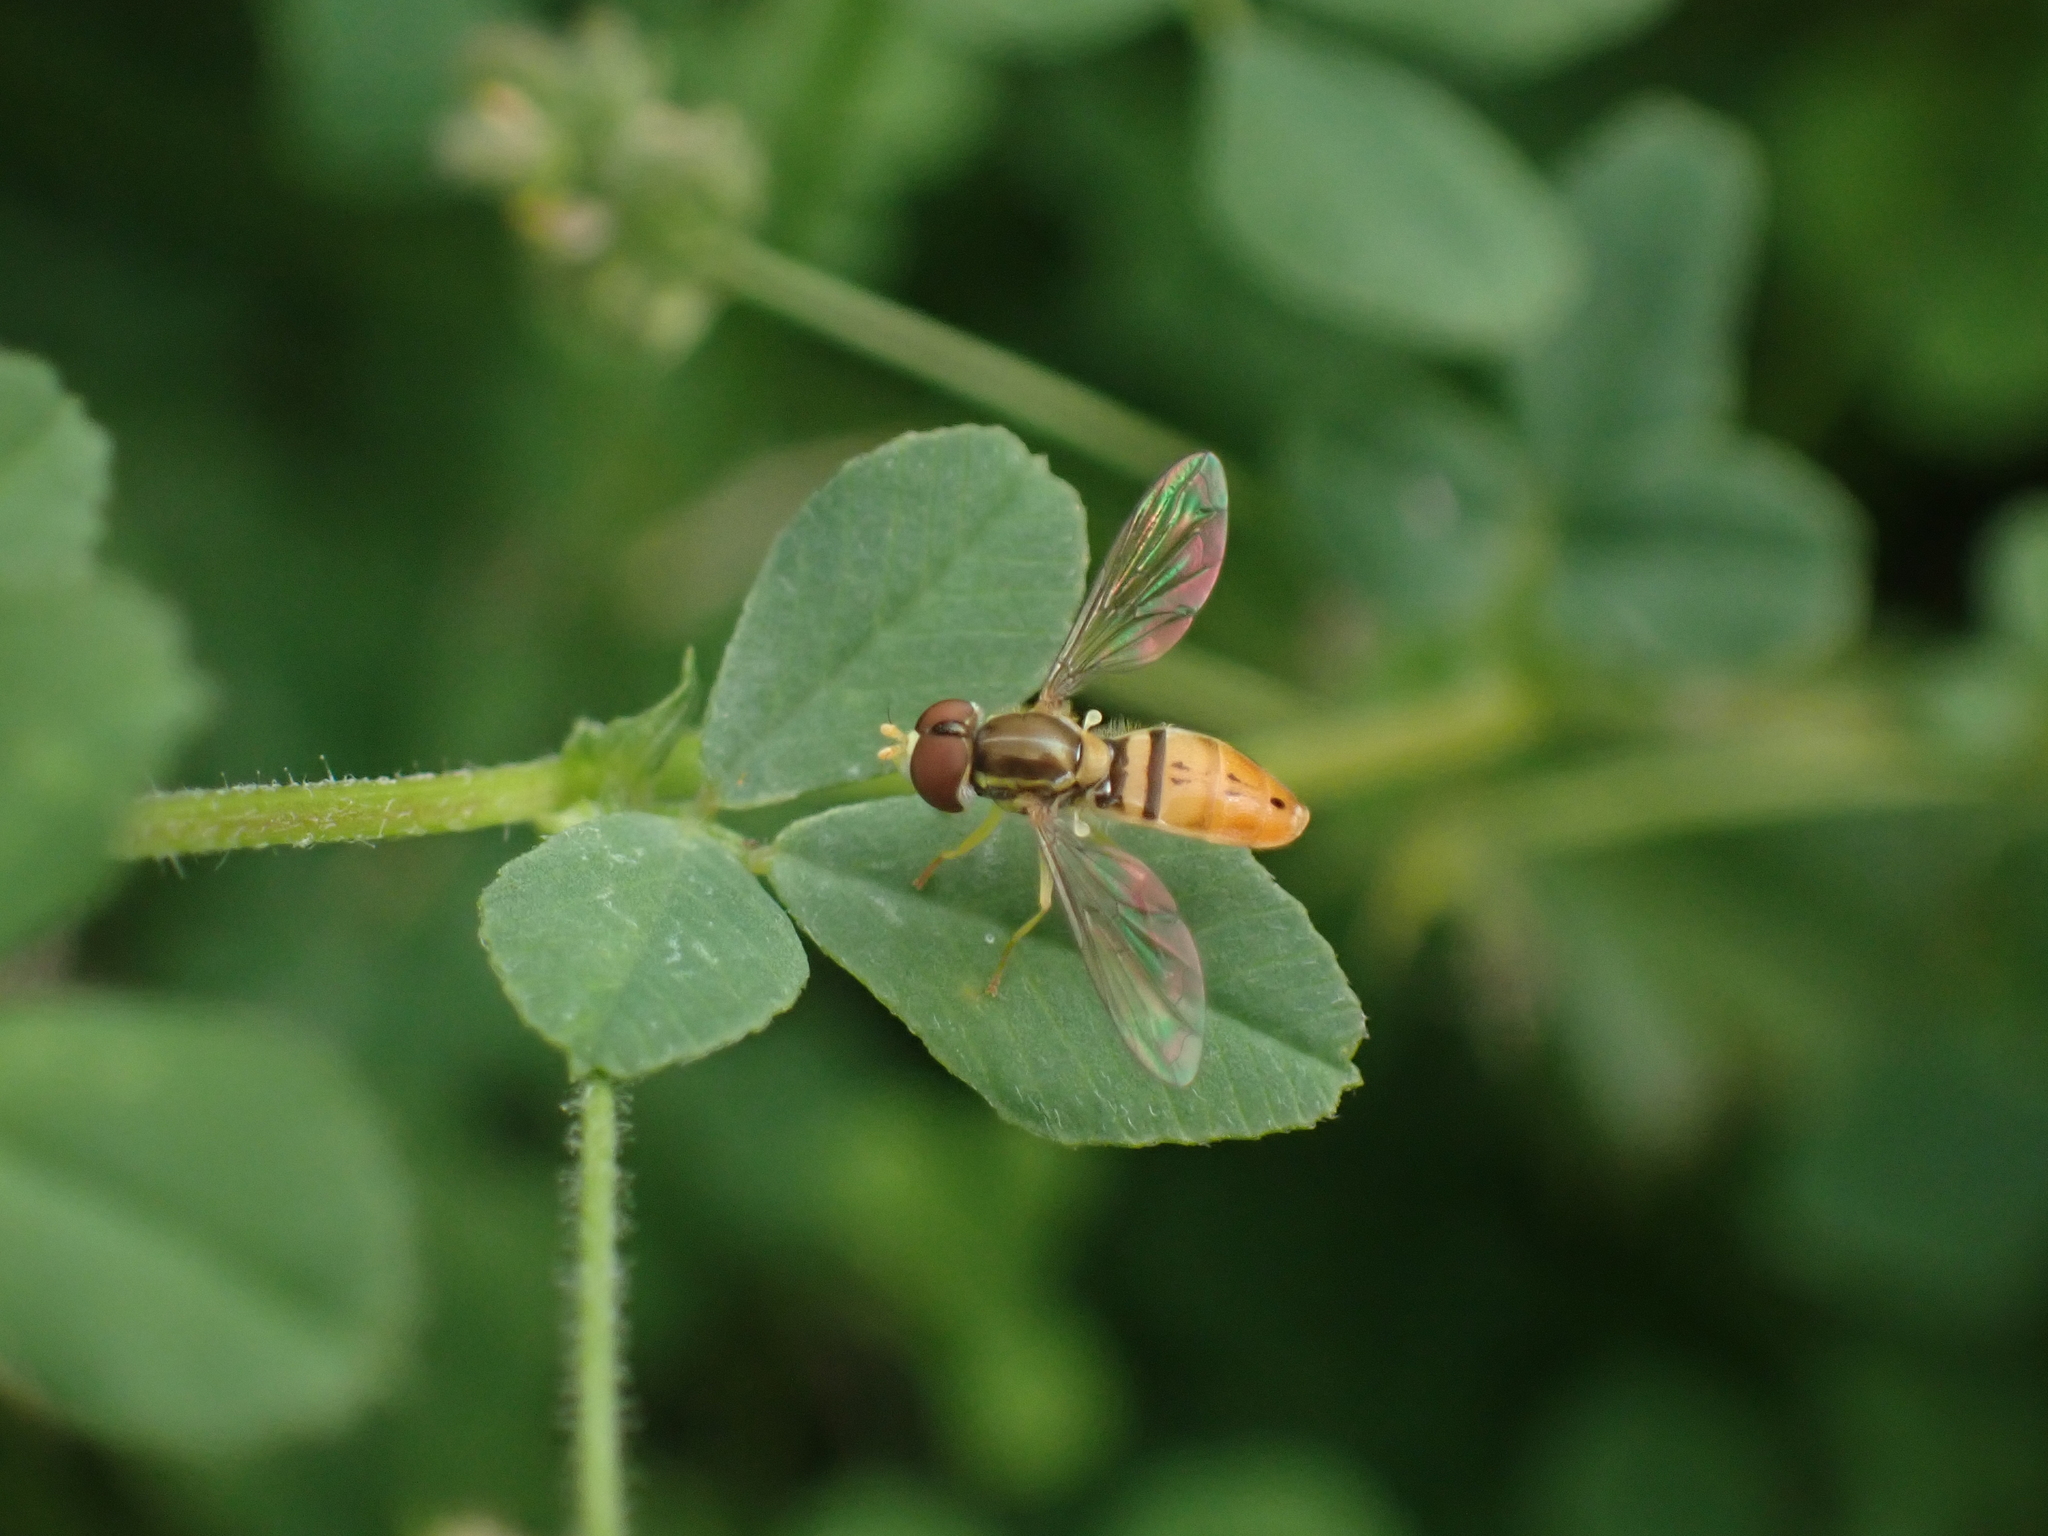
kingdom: Animalia
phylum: Arthropoda
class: Insecta
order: Diptera
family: Syrphidae
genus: Toxomerus
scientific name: Toxomerus marginatus
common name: Syrphid fly
